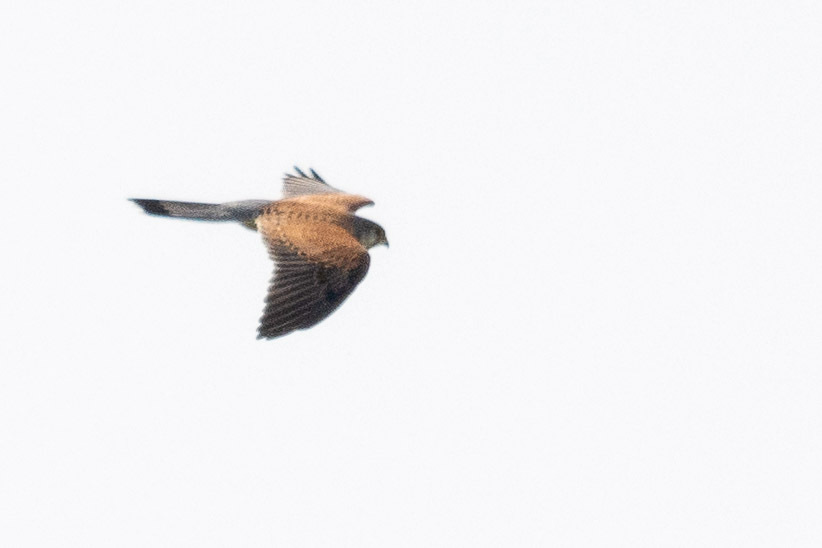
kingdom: Animalia
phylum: Chordata
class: Aves
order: Falconiformes
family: Falconidae
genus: Falco
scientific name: Falco tinnunculus
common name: Common kestrel
